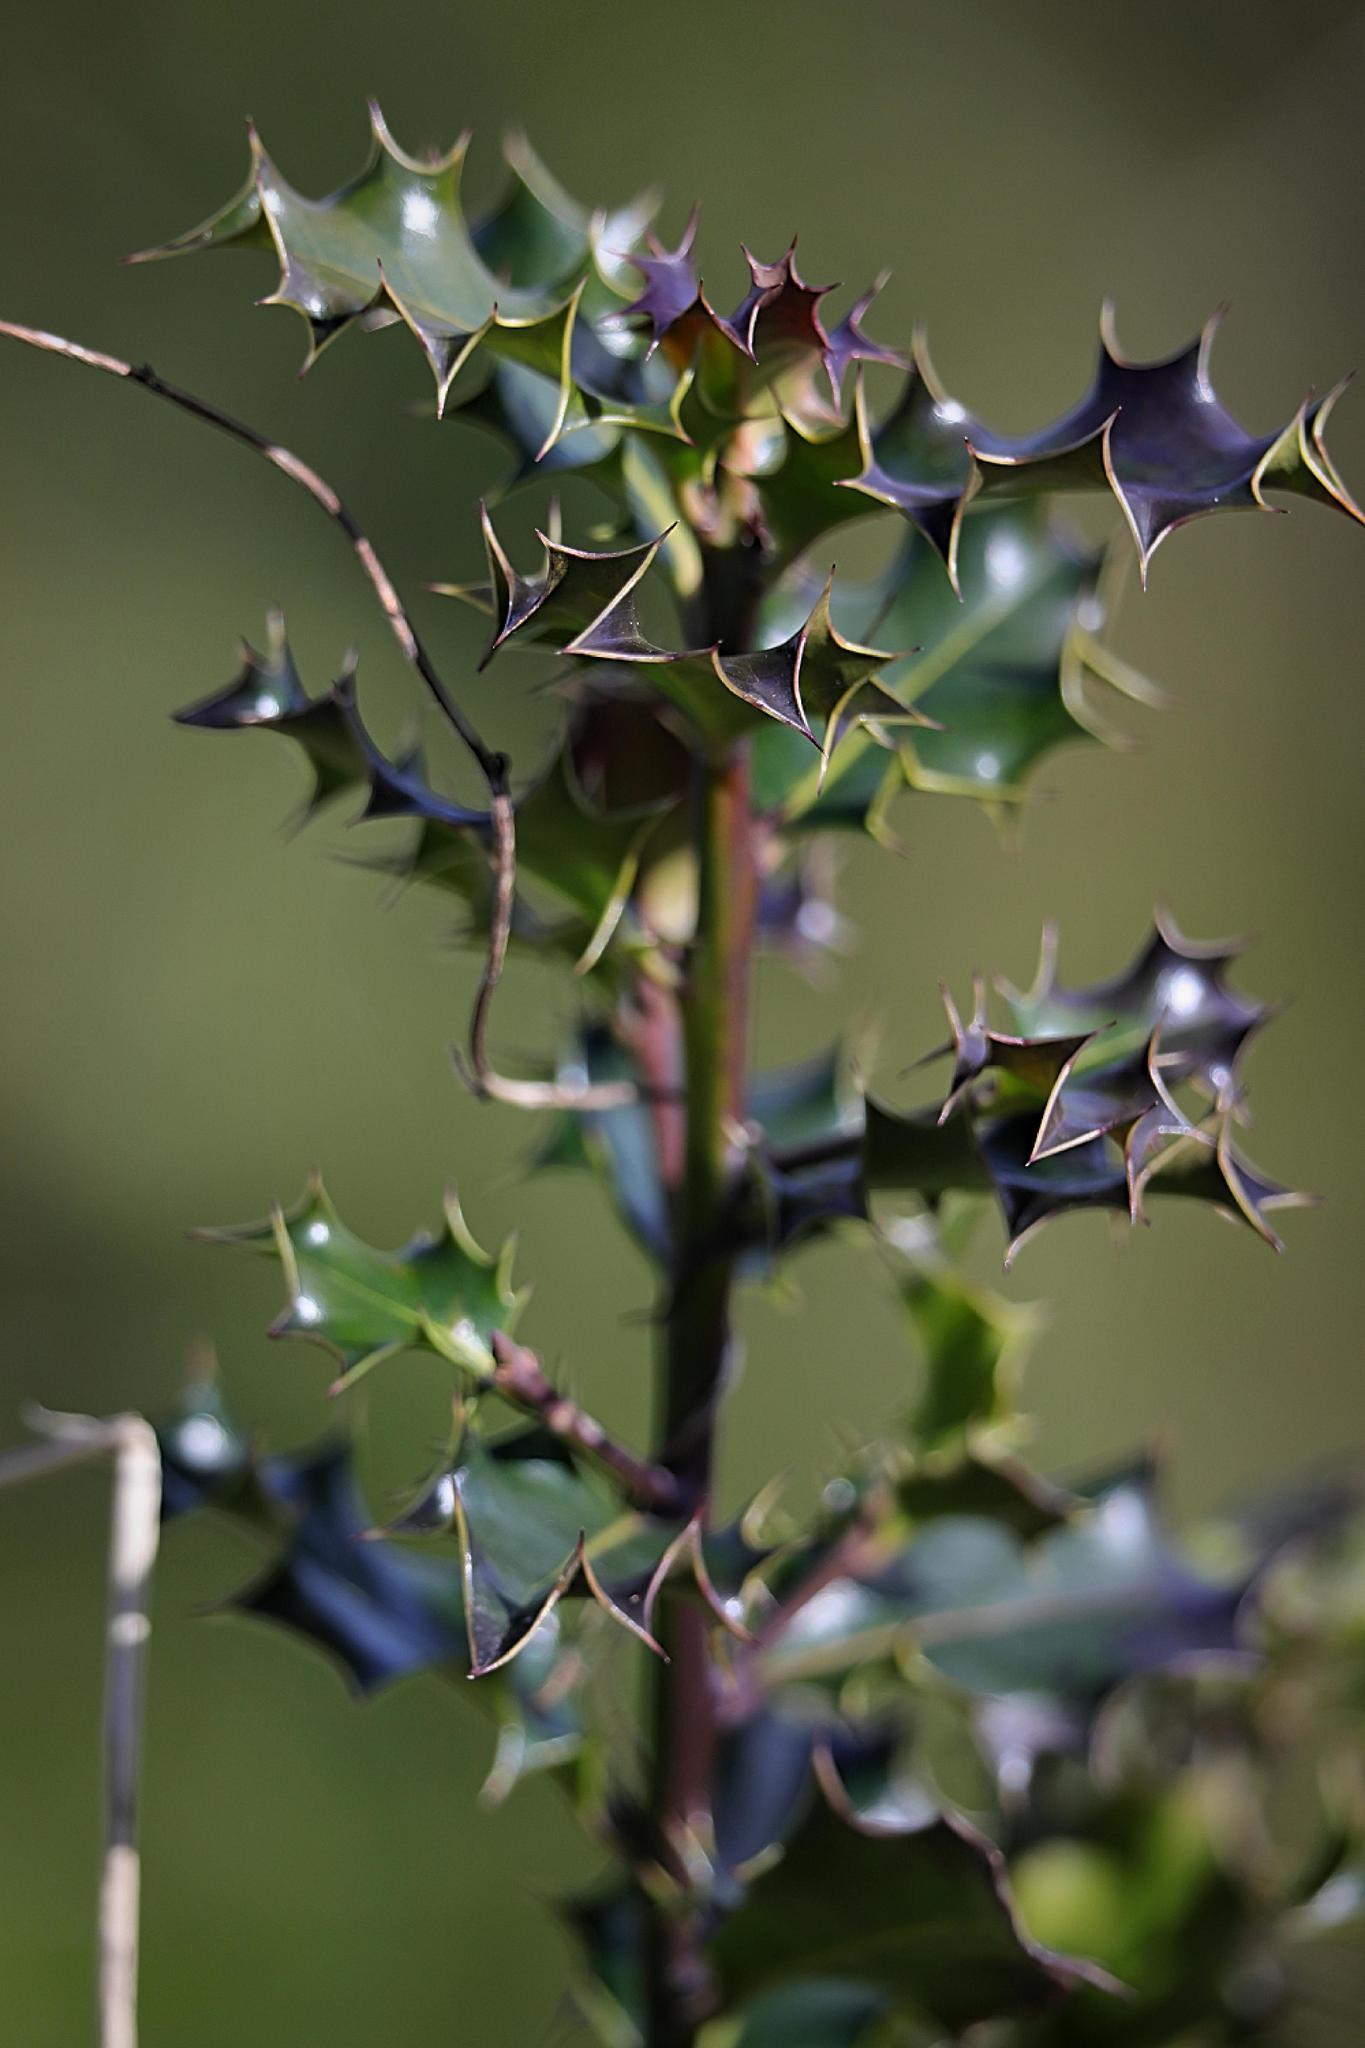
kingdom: Plantae
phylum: Tracheophyta
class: Magnoliopsida
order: Aquifoliales
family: Aquifoliaceae
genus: Ilex
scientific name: Ilex aquifolium
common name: English holly
